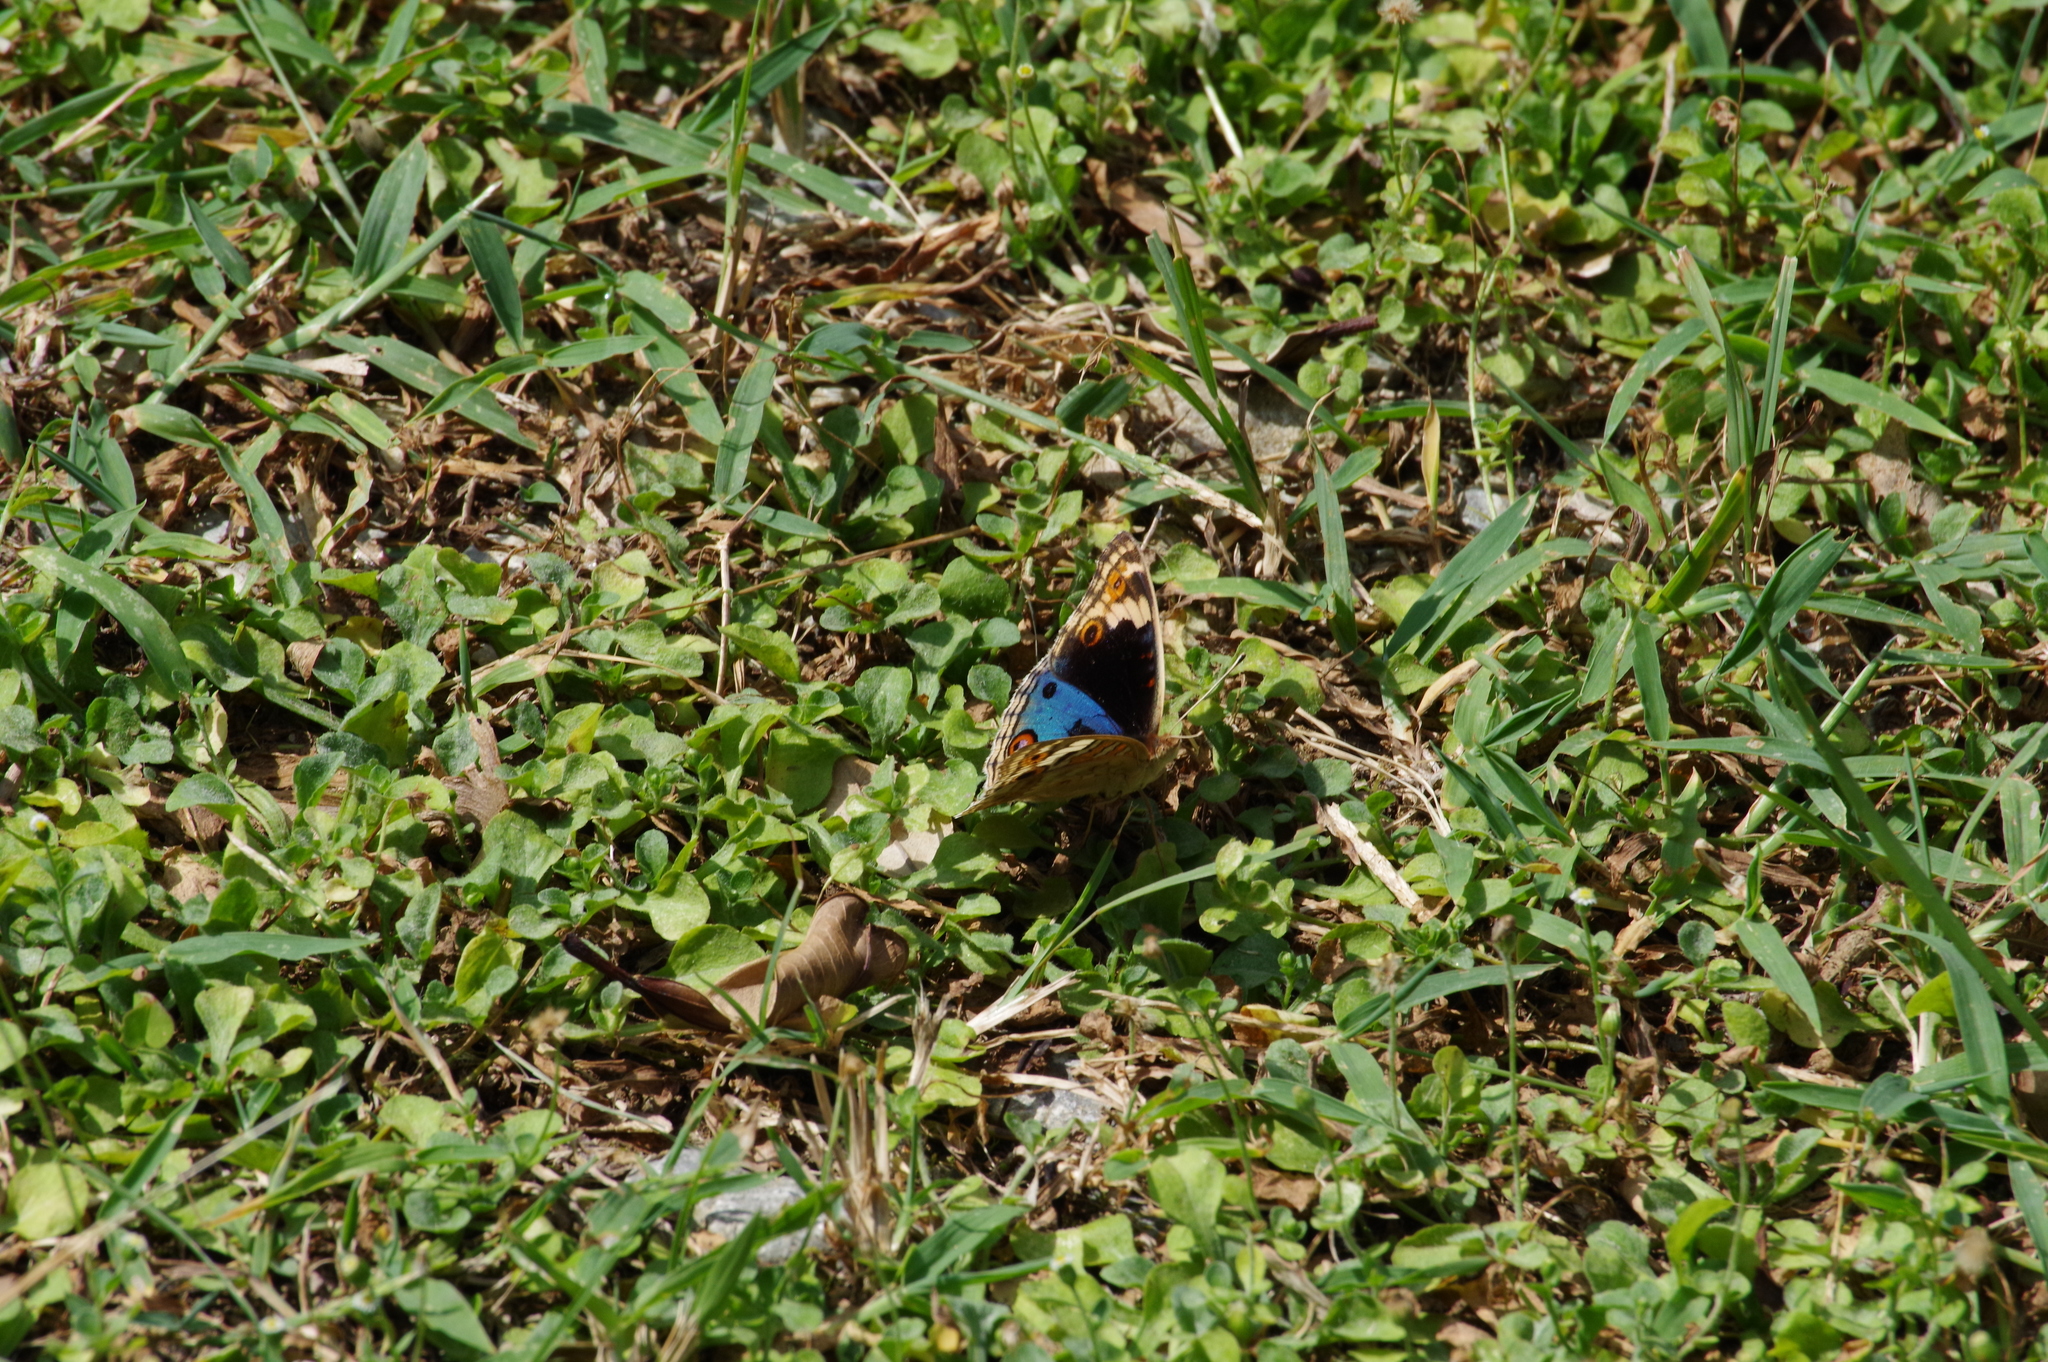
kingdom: Animalia
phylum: Arthropoda
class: Insecta
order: Lepidoptera
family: Nymphalidae
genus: Junonia
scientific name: Junonia orithya
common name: Blue pansy
